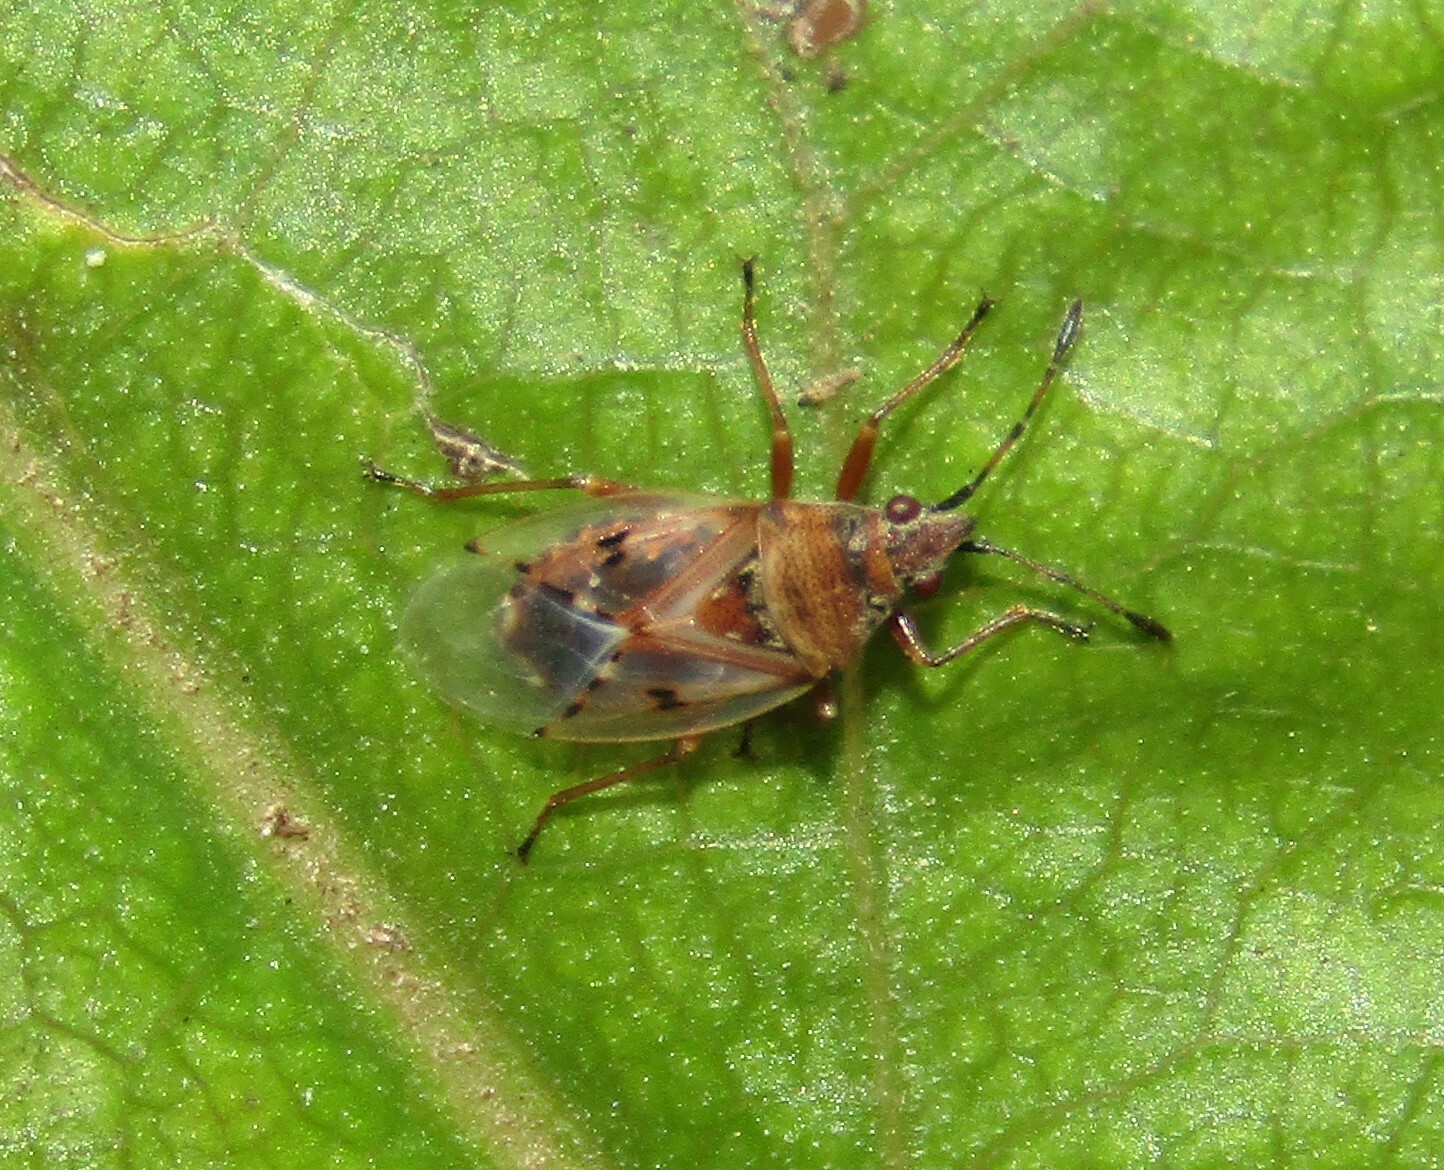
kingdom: Animalia
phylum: Arthropoda
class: Insecta
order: Hemiptera
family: Lygaeidae
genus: Kleidocerys
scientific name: Kleidocerys resedae
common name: Birch catkin bug
